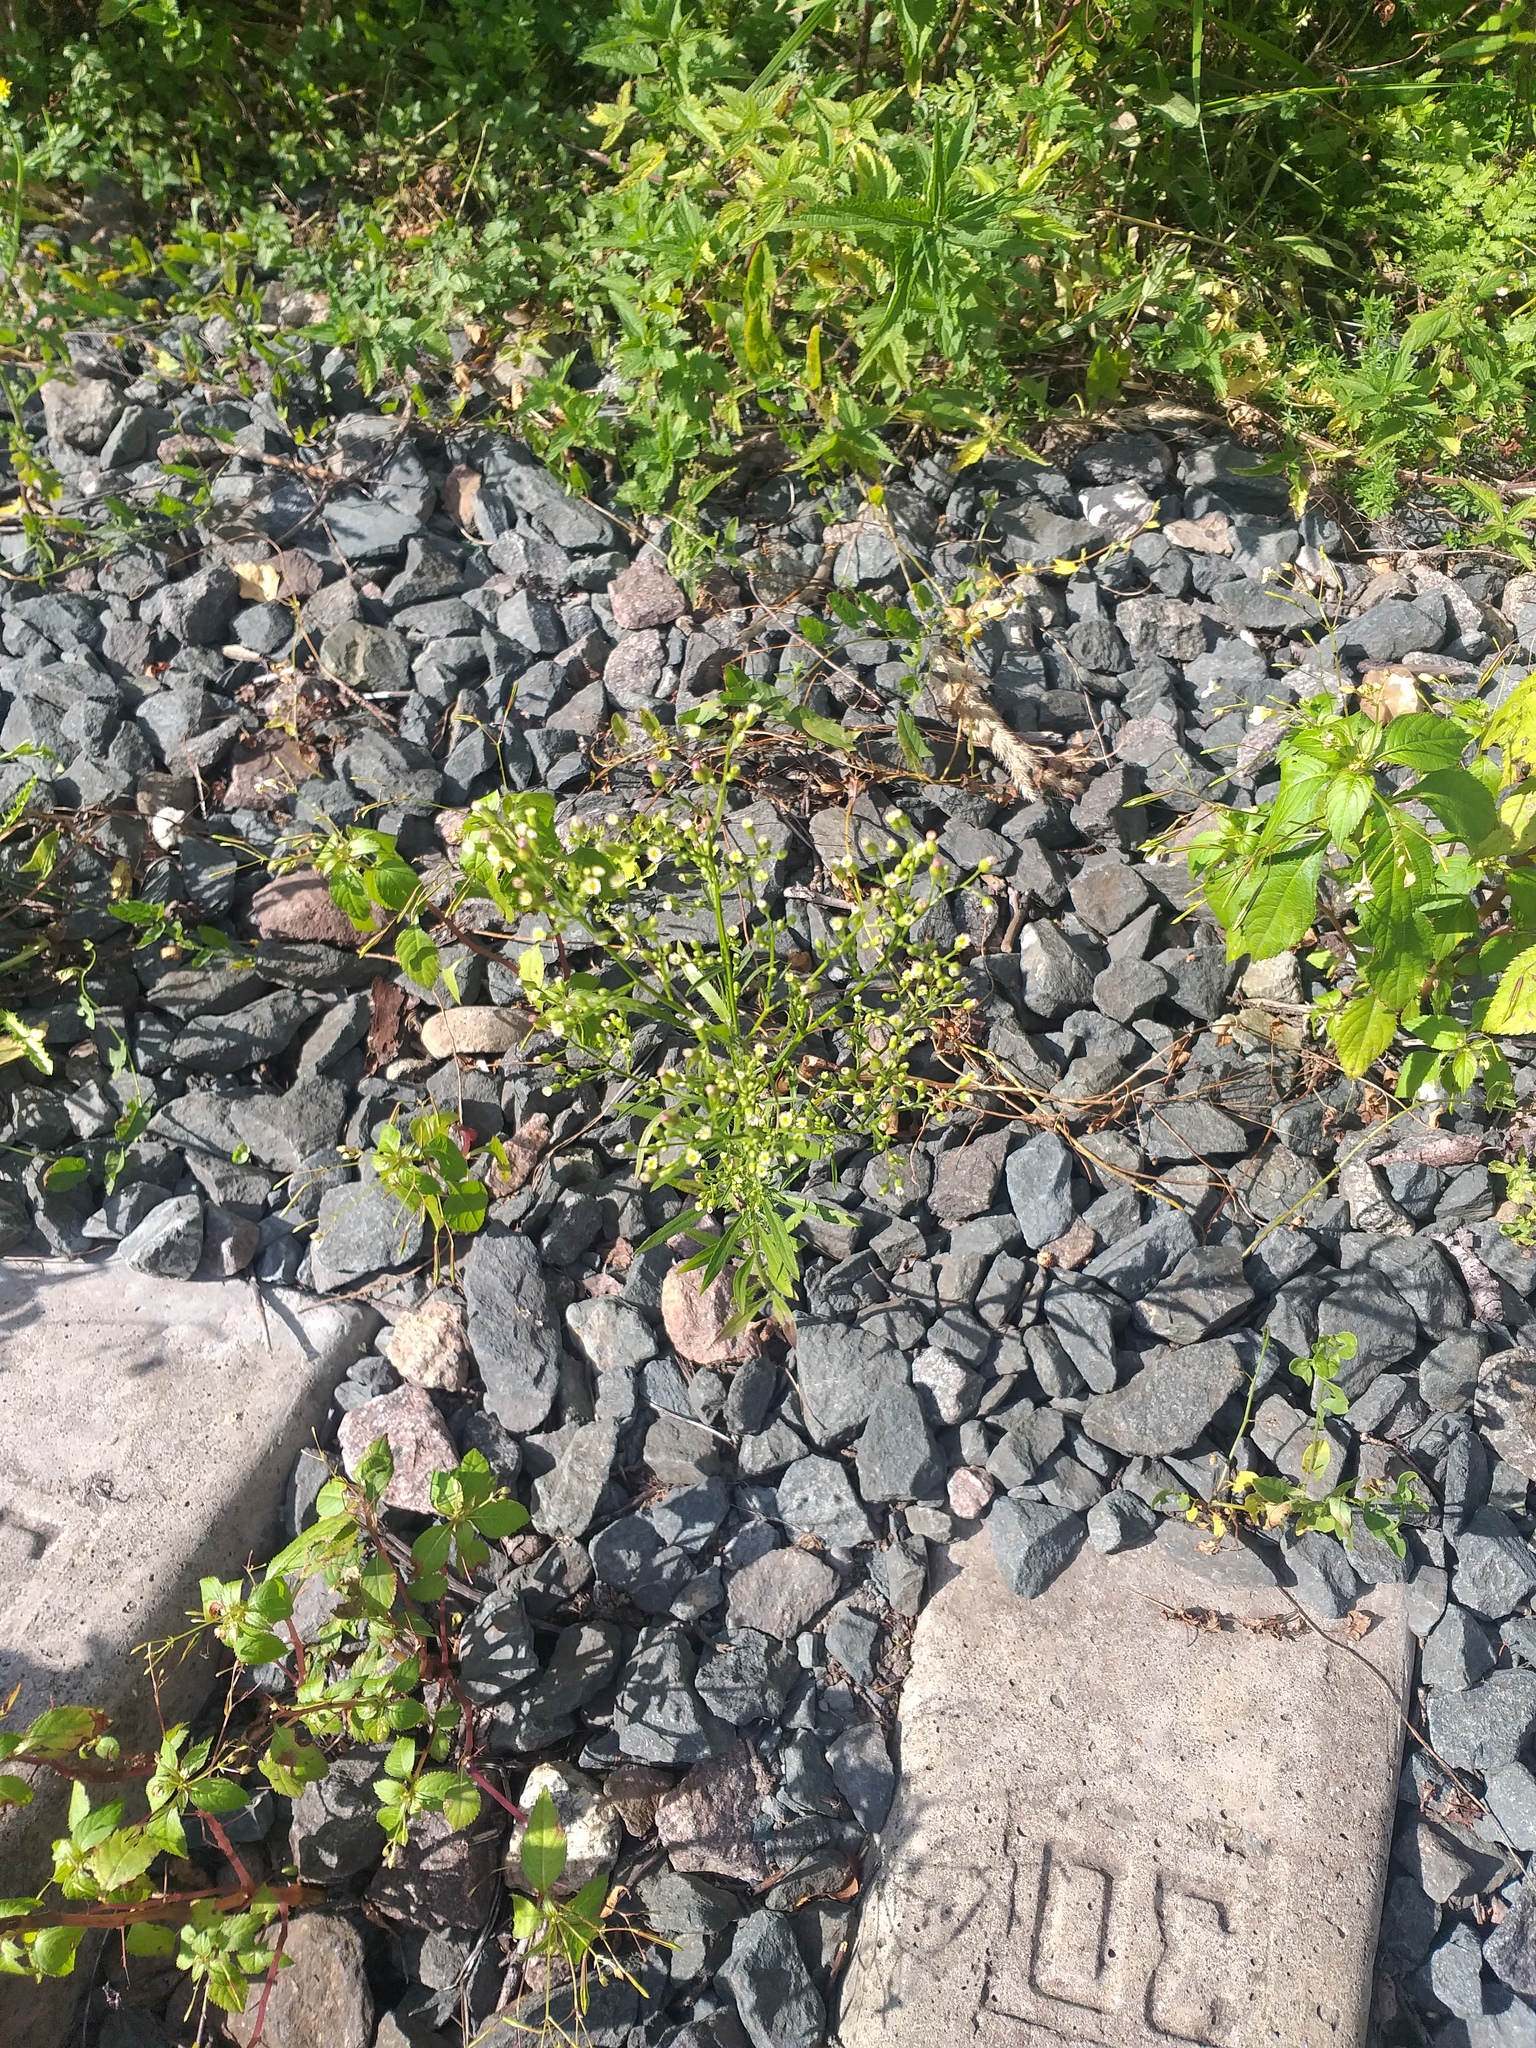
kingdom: Plantae
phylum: Tracheophyta
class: Magnoliopsida
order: Asterales
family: Asteraceae
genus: Erigeron
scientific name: Erigeron canadensis
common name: Canadian fleabane
